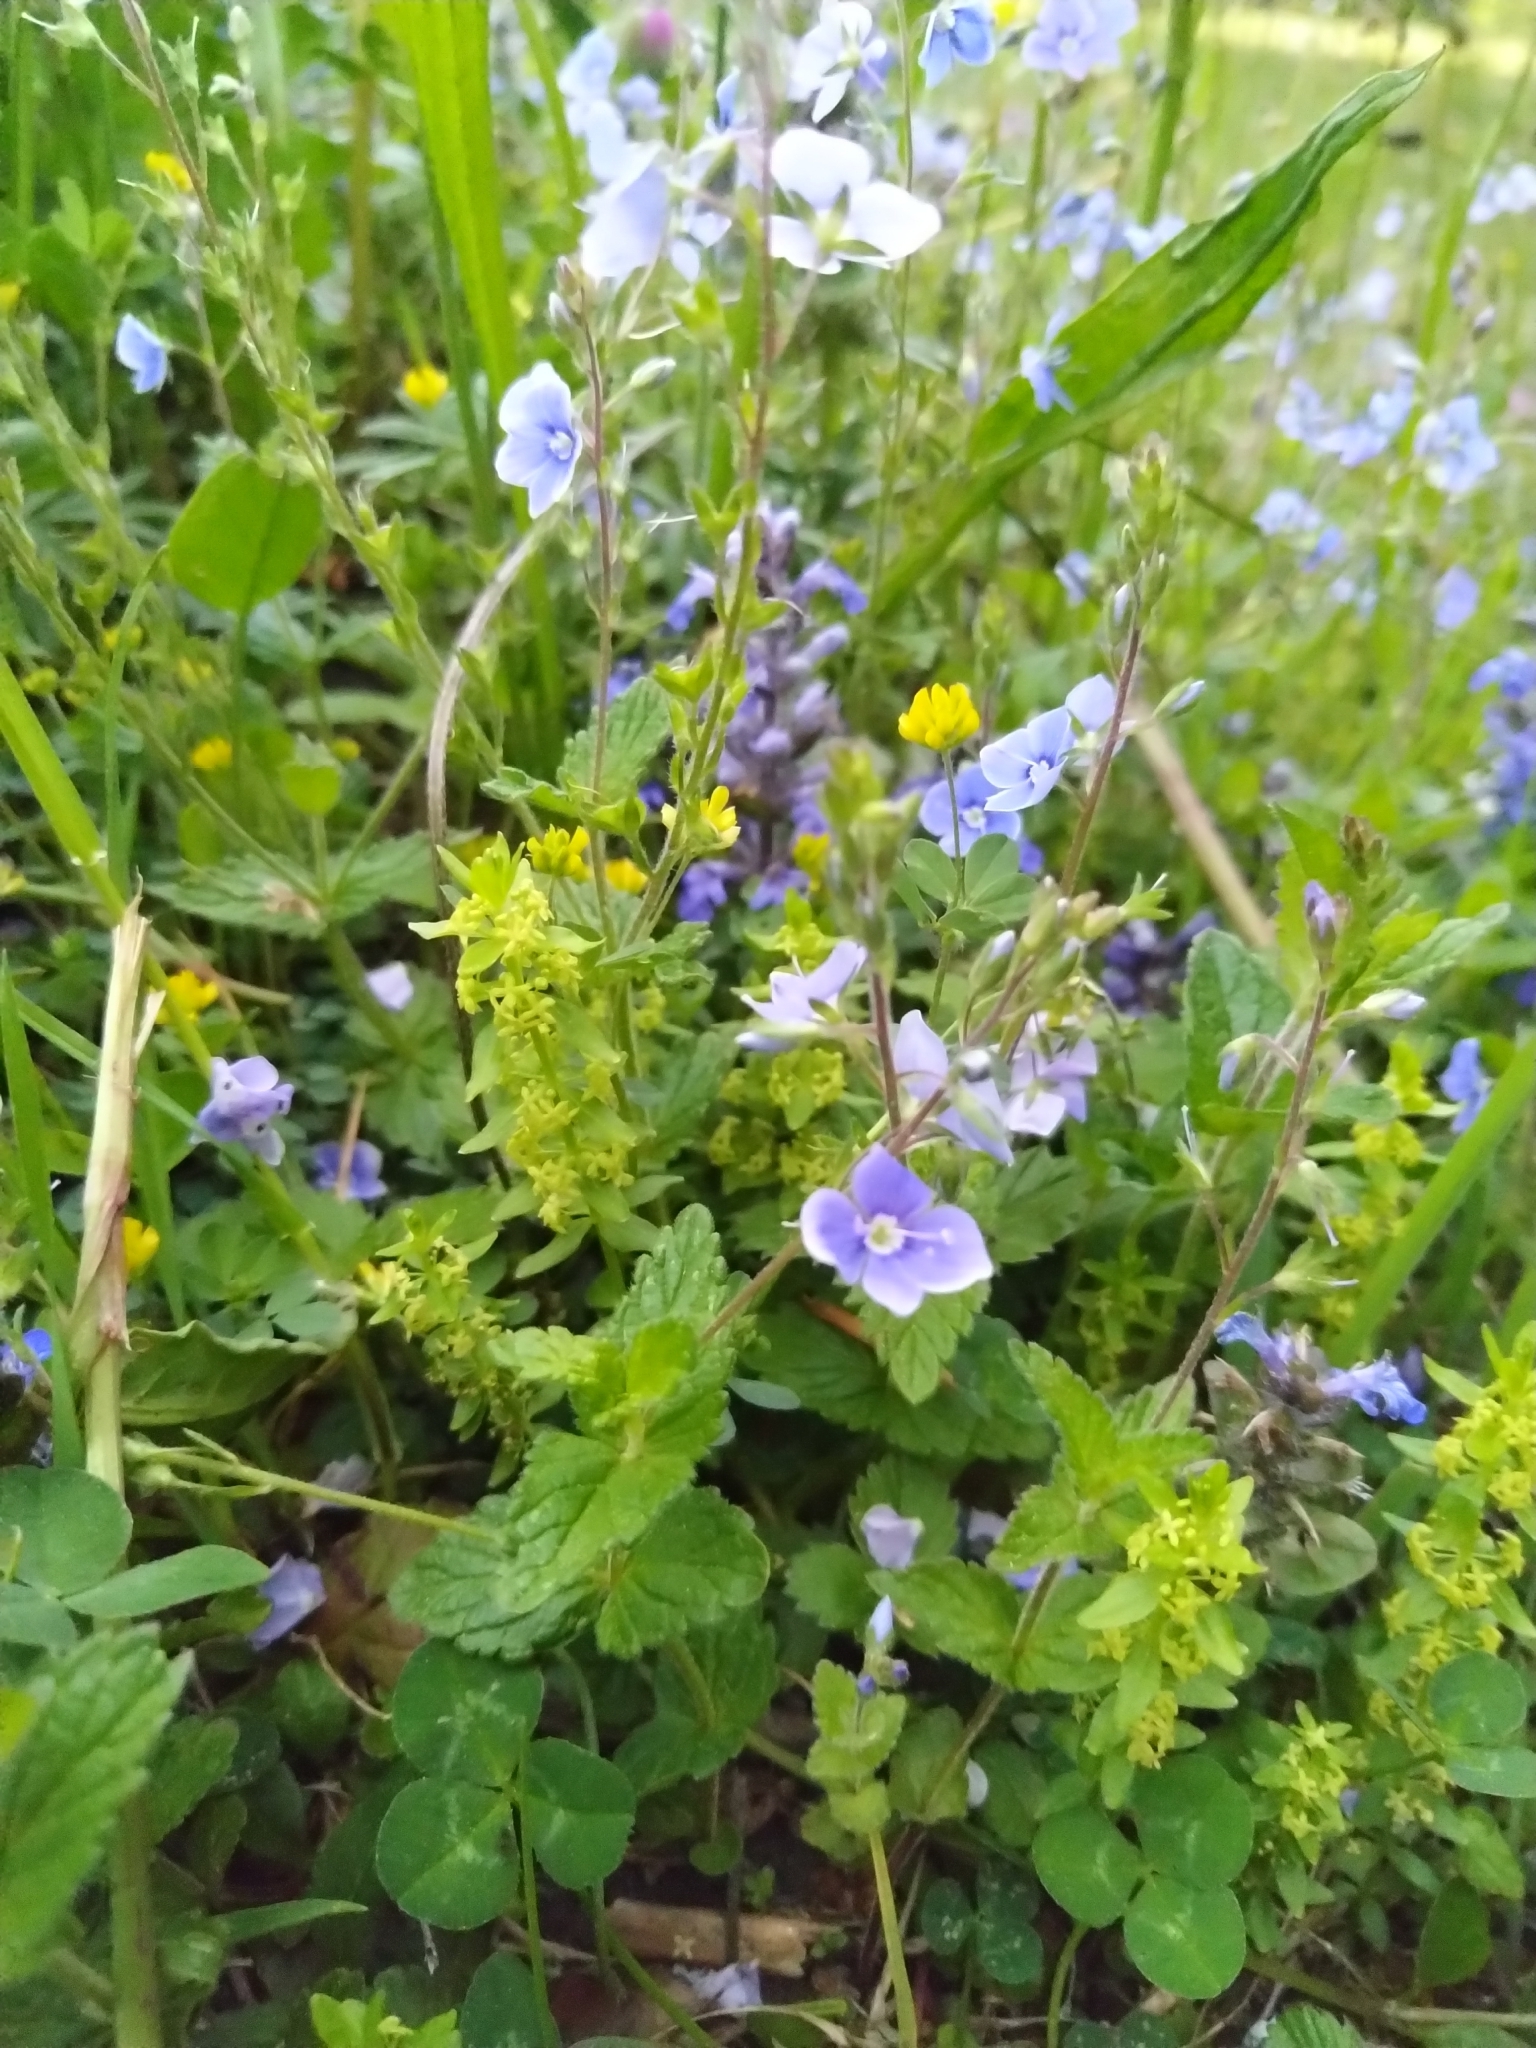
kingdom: Plantae
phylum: Tracheophyta
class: Magnoliopsida
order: Lamiales
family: Plantaginaceae
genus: Veronica
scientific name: Veronica chamaedrys
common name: Germander speedwell
